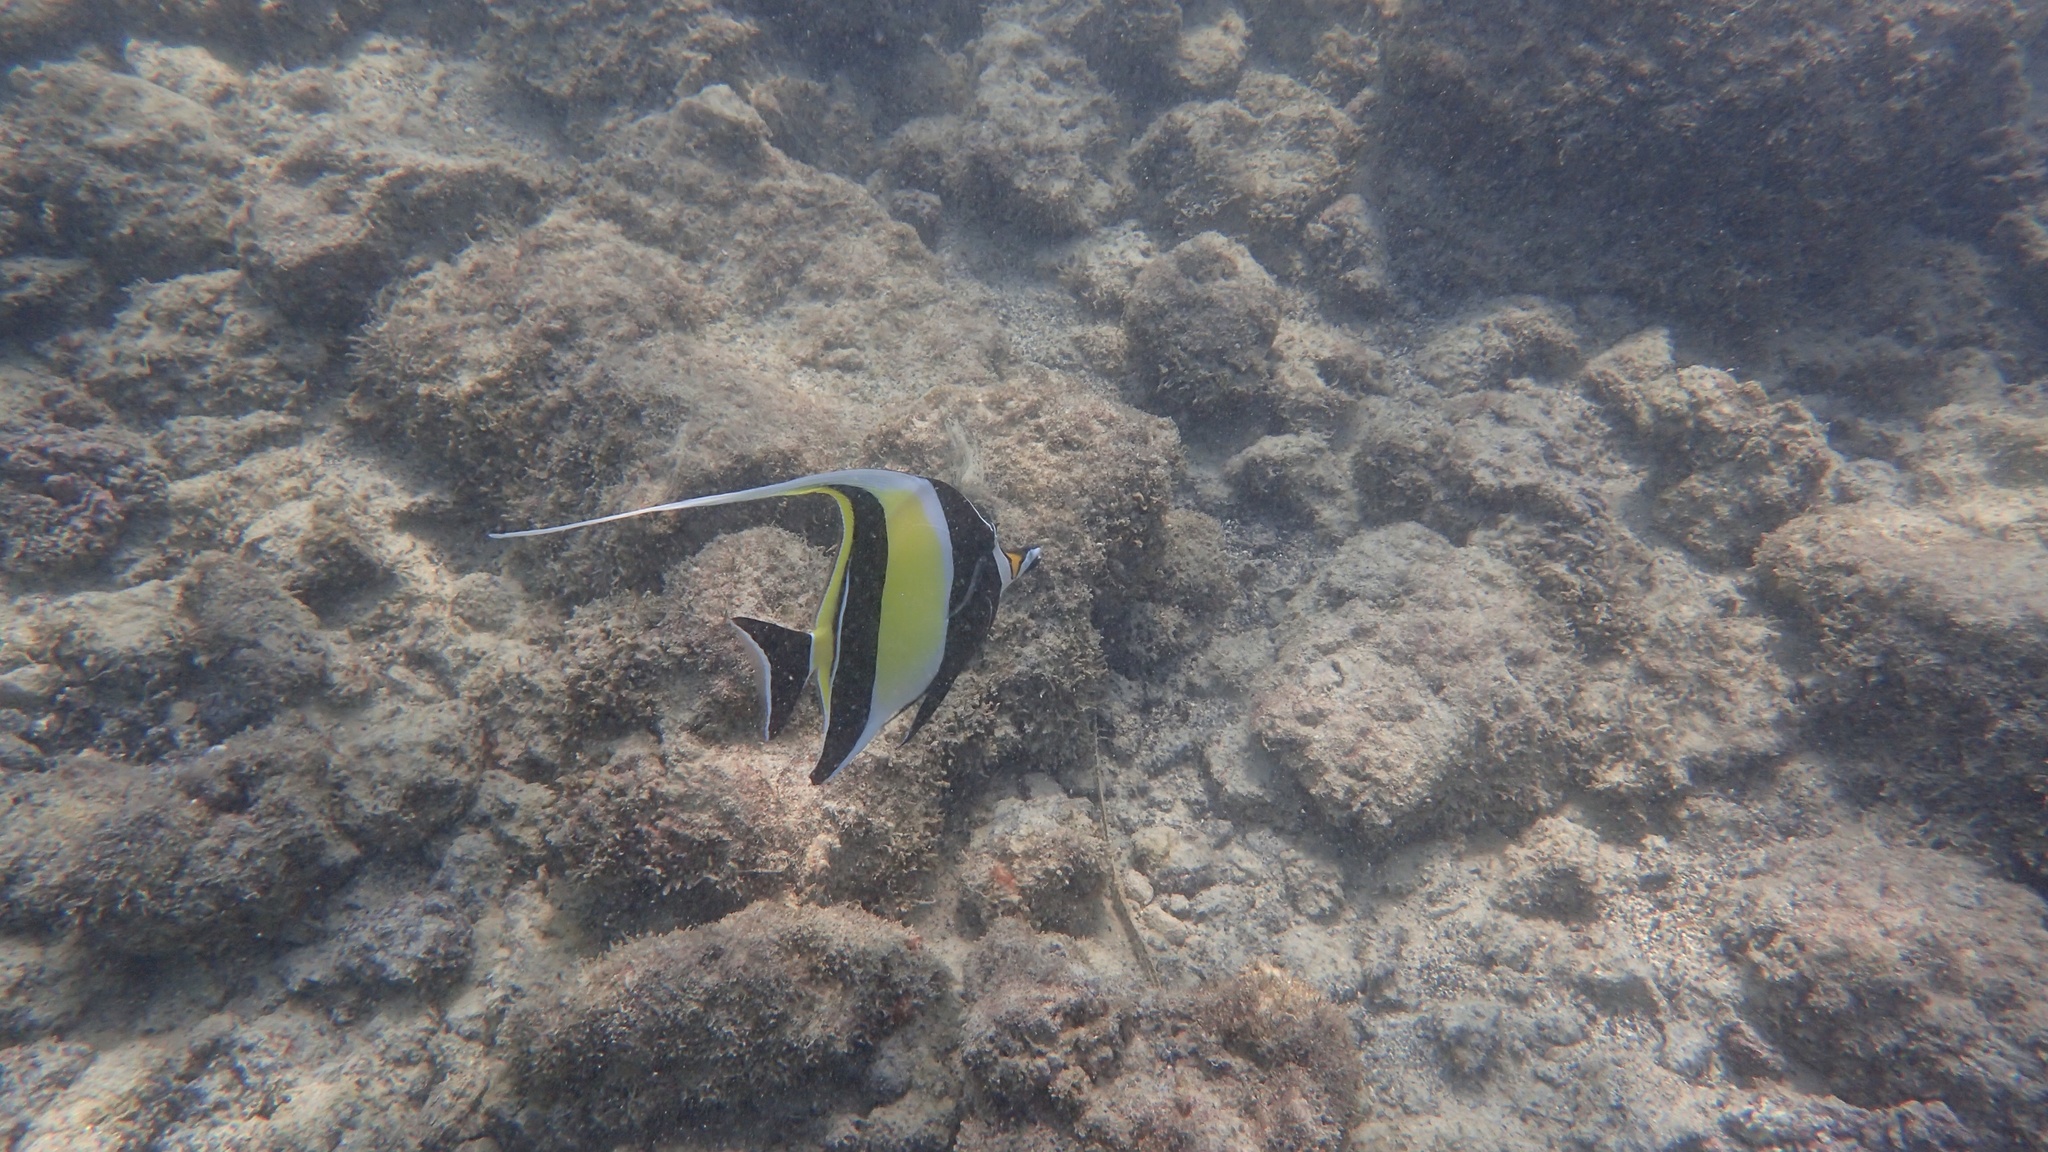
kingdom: Animalia
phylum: Chordata
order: Perciformes
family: Zanclidae
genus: Zanclus
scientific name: Zanclus cornutus
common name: Moorish idol
